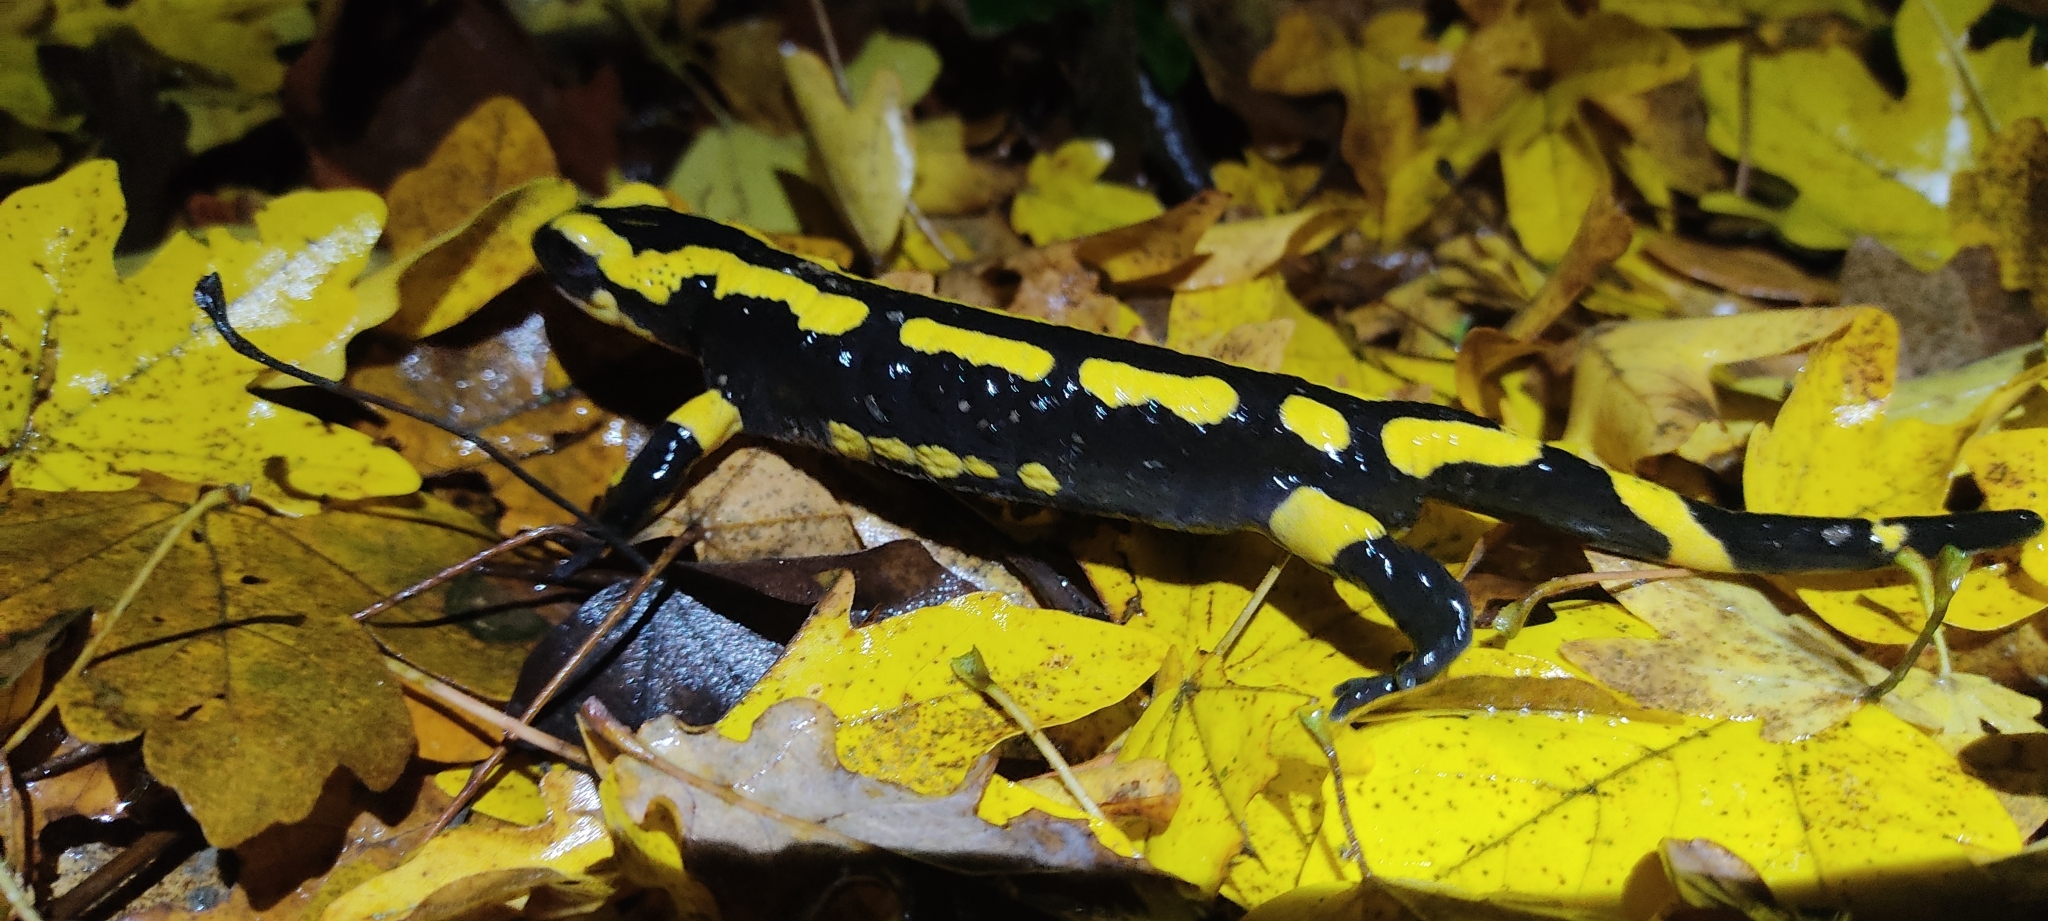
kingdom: Animalia
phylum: Chordata
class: Amphibia
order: Caudata
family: Salamandridae
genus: Salamandra
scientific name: Salamandra salamandra
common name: Fire salamander
